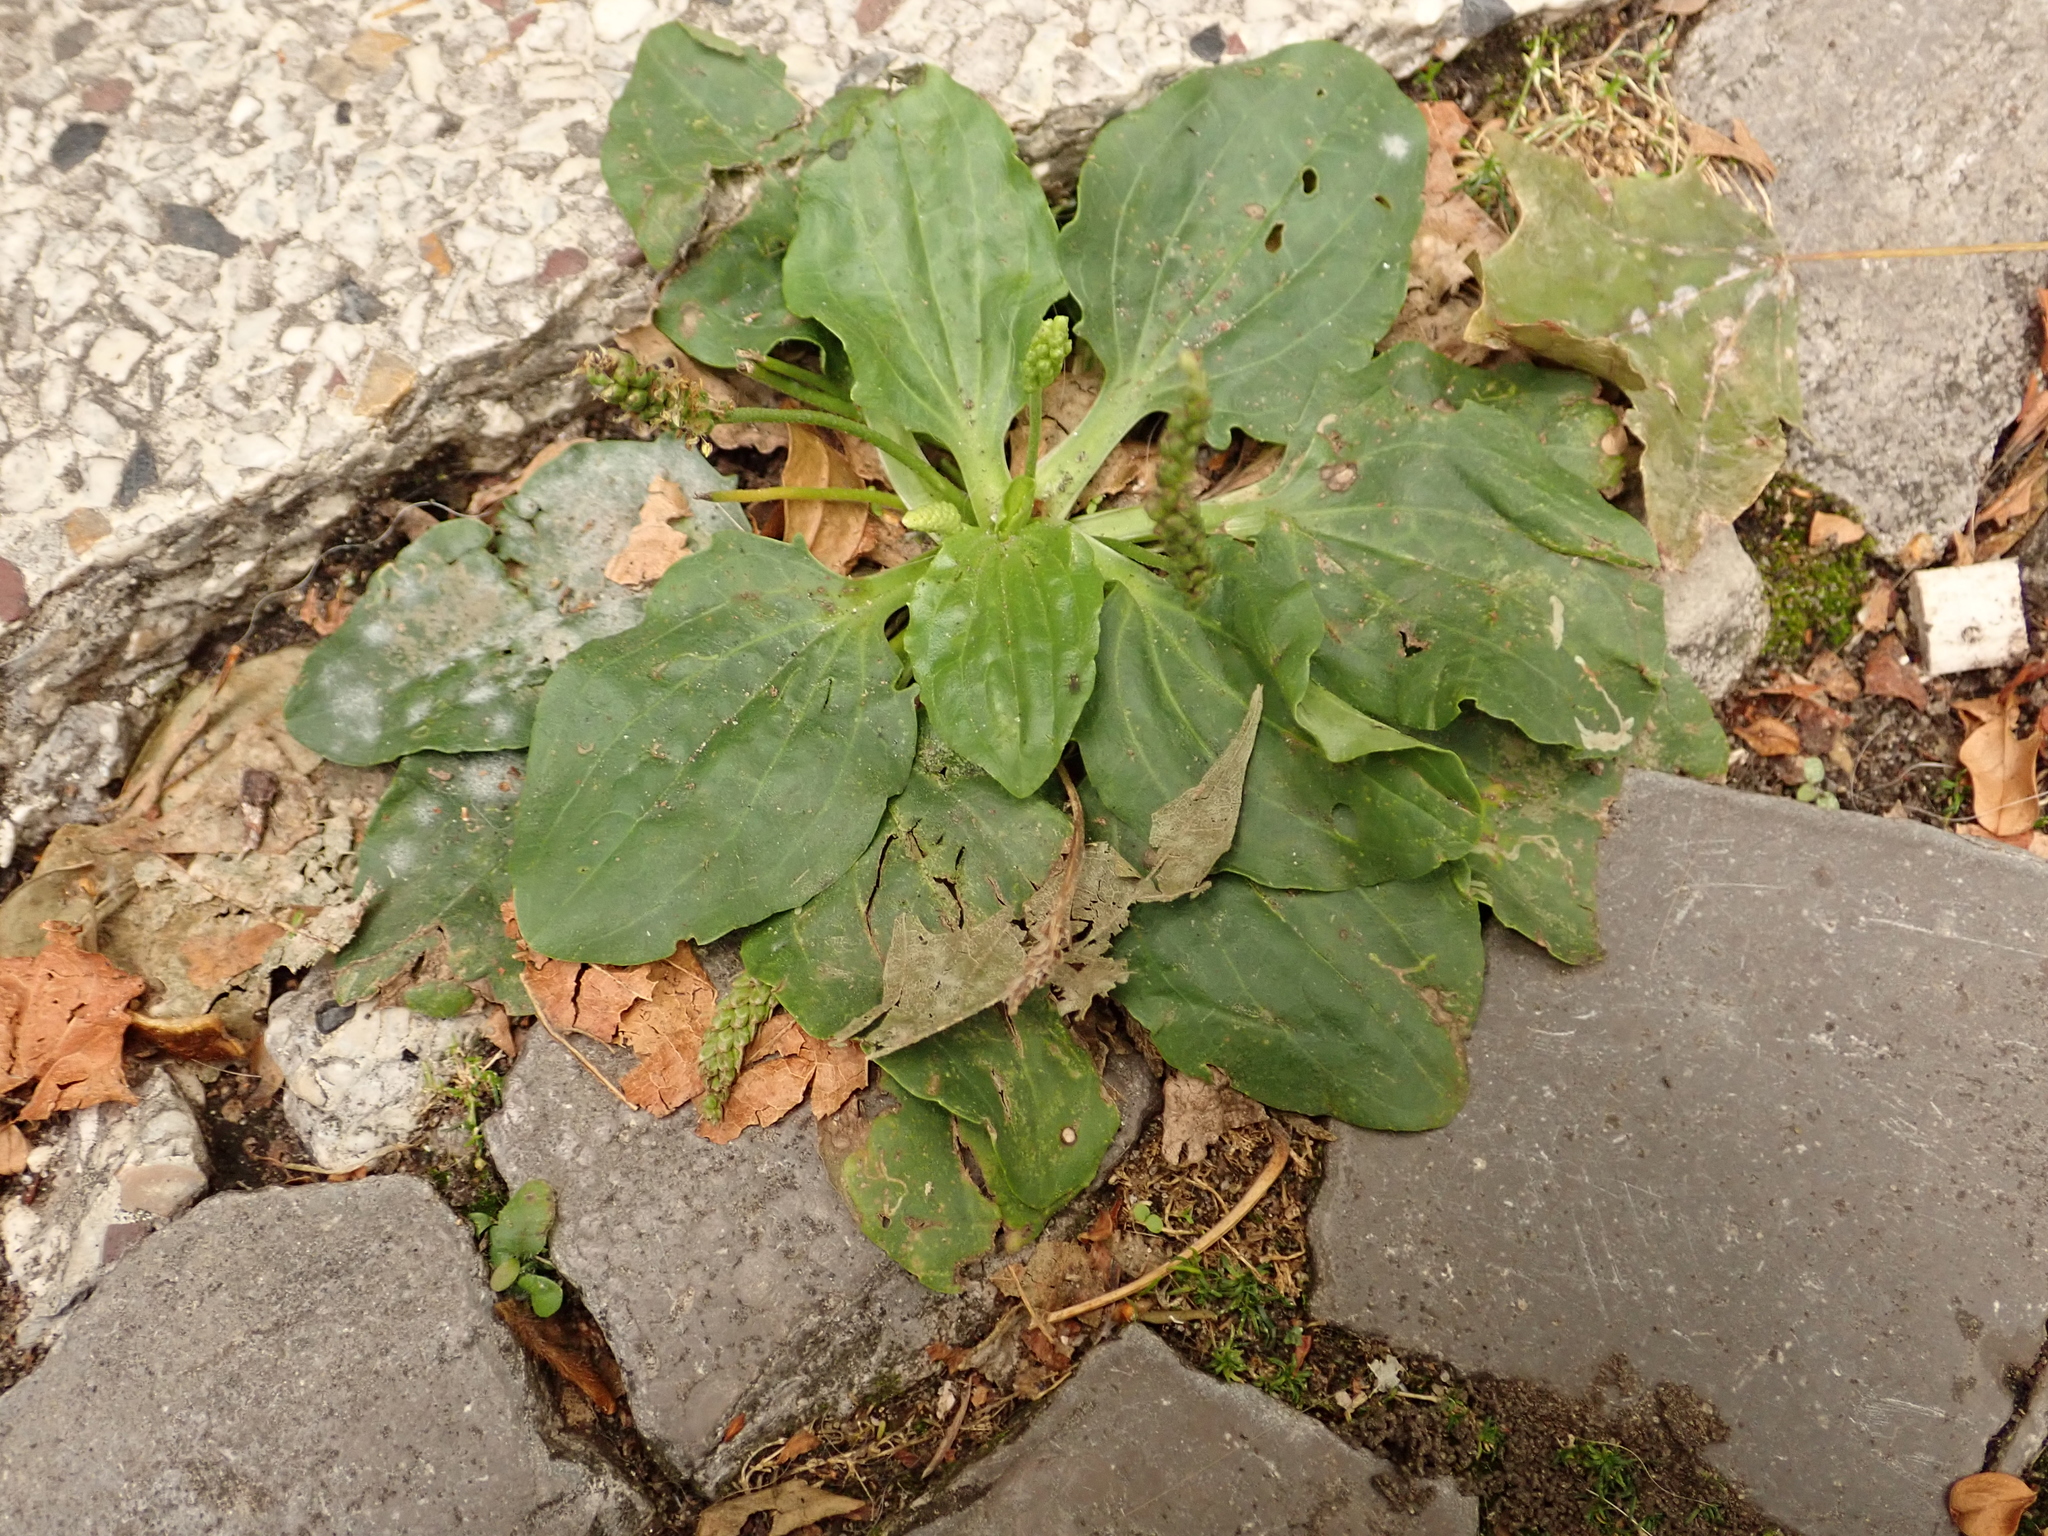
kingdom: Plantae
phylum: Tracheophyta
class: Magnoliopsida
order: Lamiales
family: Plantaginaceae
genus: Plantago
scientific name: Plantago major
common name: Common plantain
